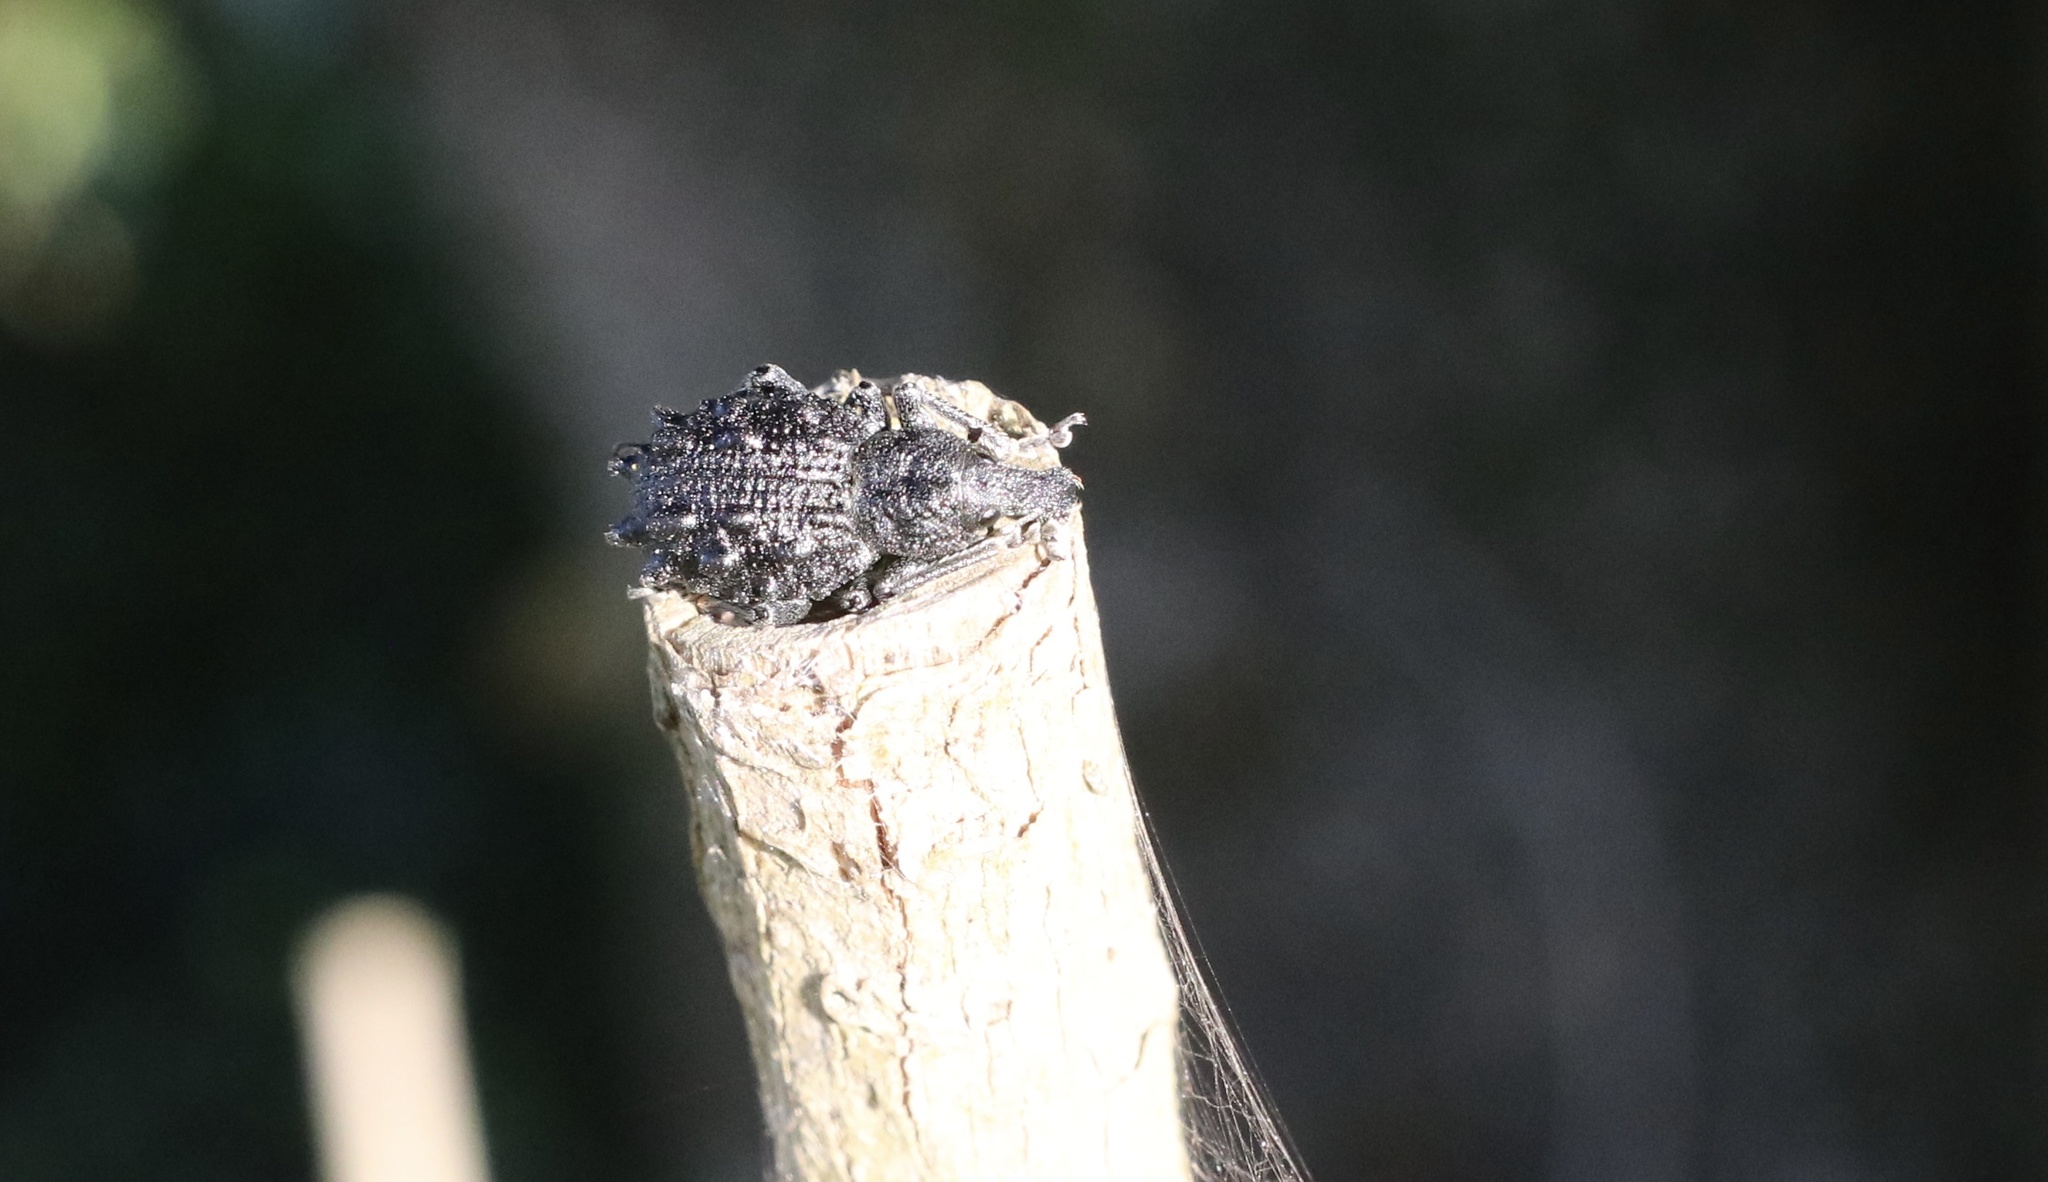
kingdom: Animalia
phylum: Arthropoda
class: Insecta
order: Coleoptera
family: Curculionidae
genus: Megalometis
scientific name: Megalometis spiniferus
